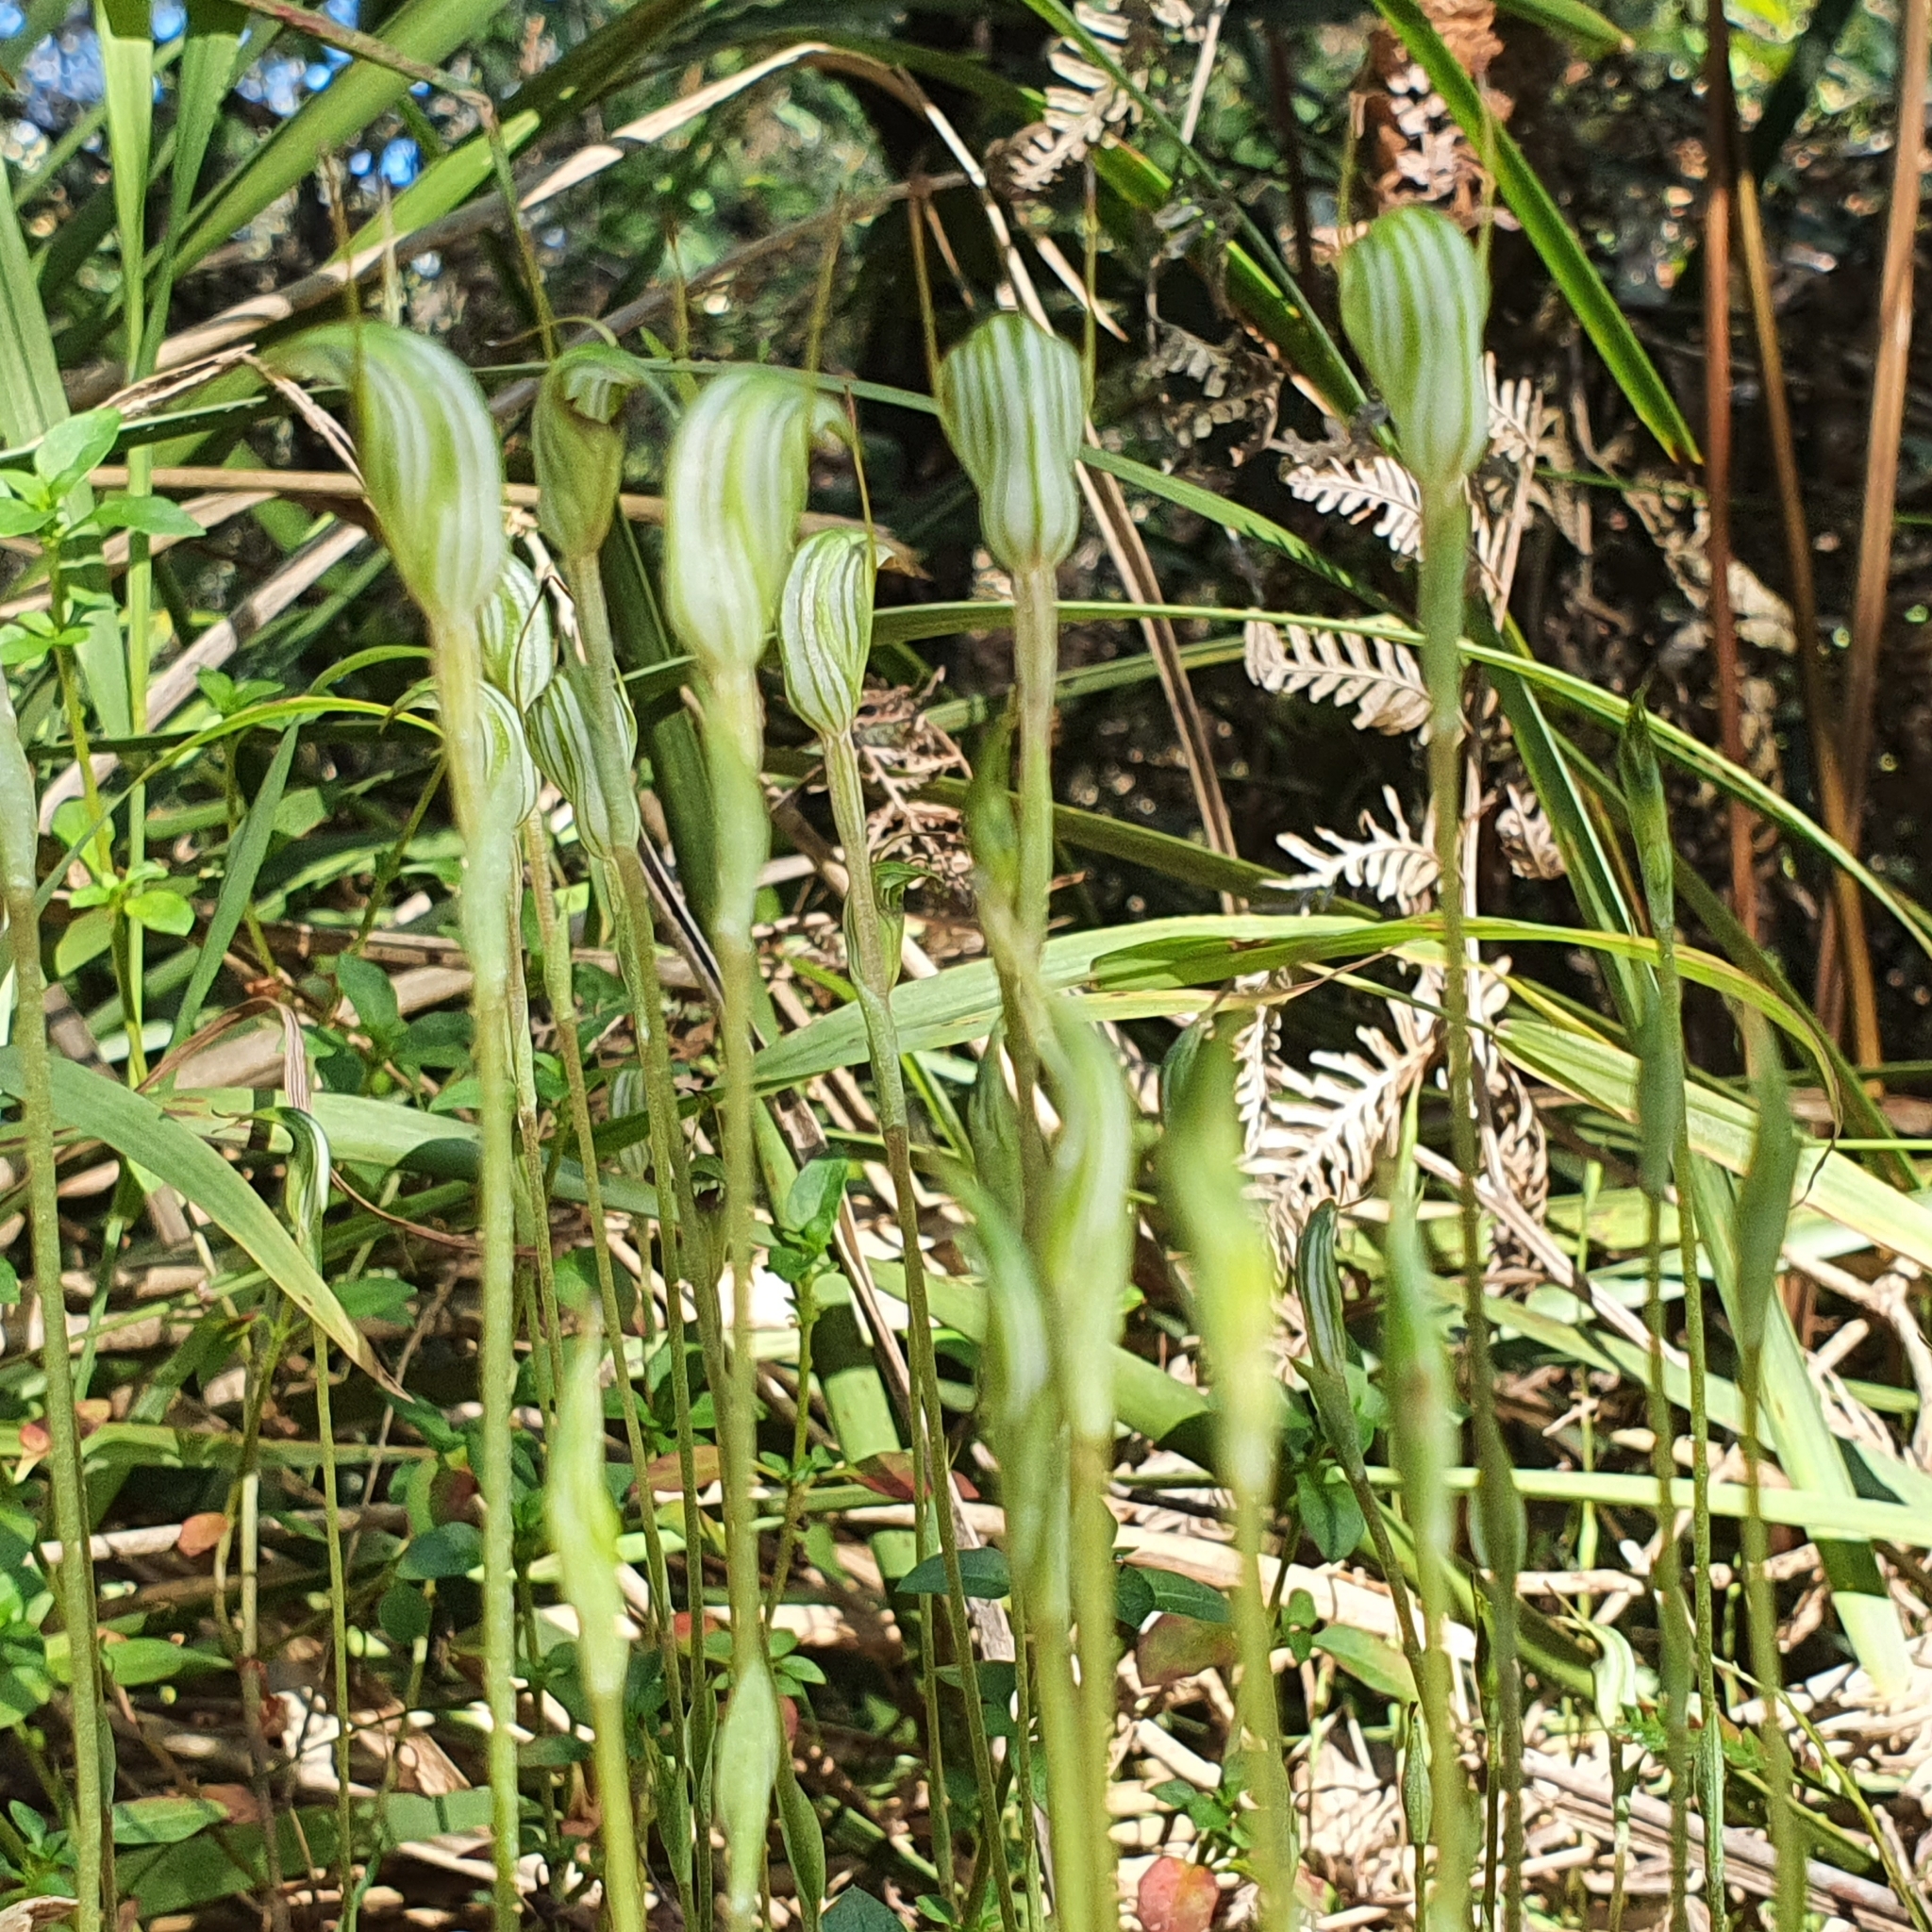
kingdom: Plantae
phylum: Tracheophyta
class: Liliopsida
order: Asparagales
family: Orchidaceae
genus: Pterostylis
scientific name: Pterostylis concinna
